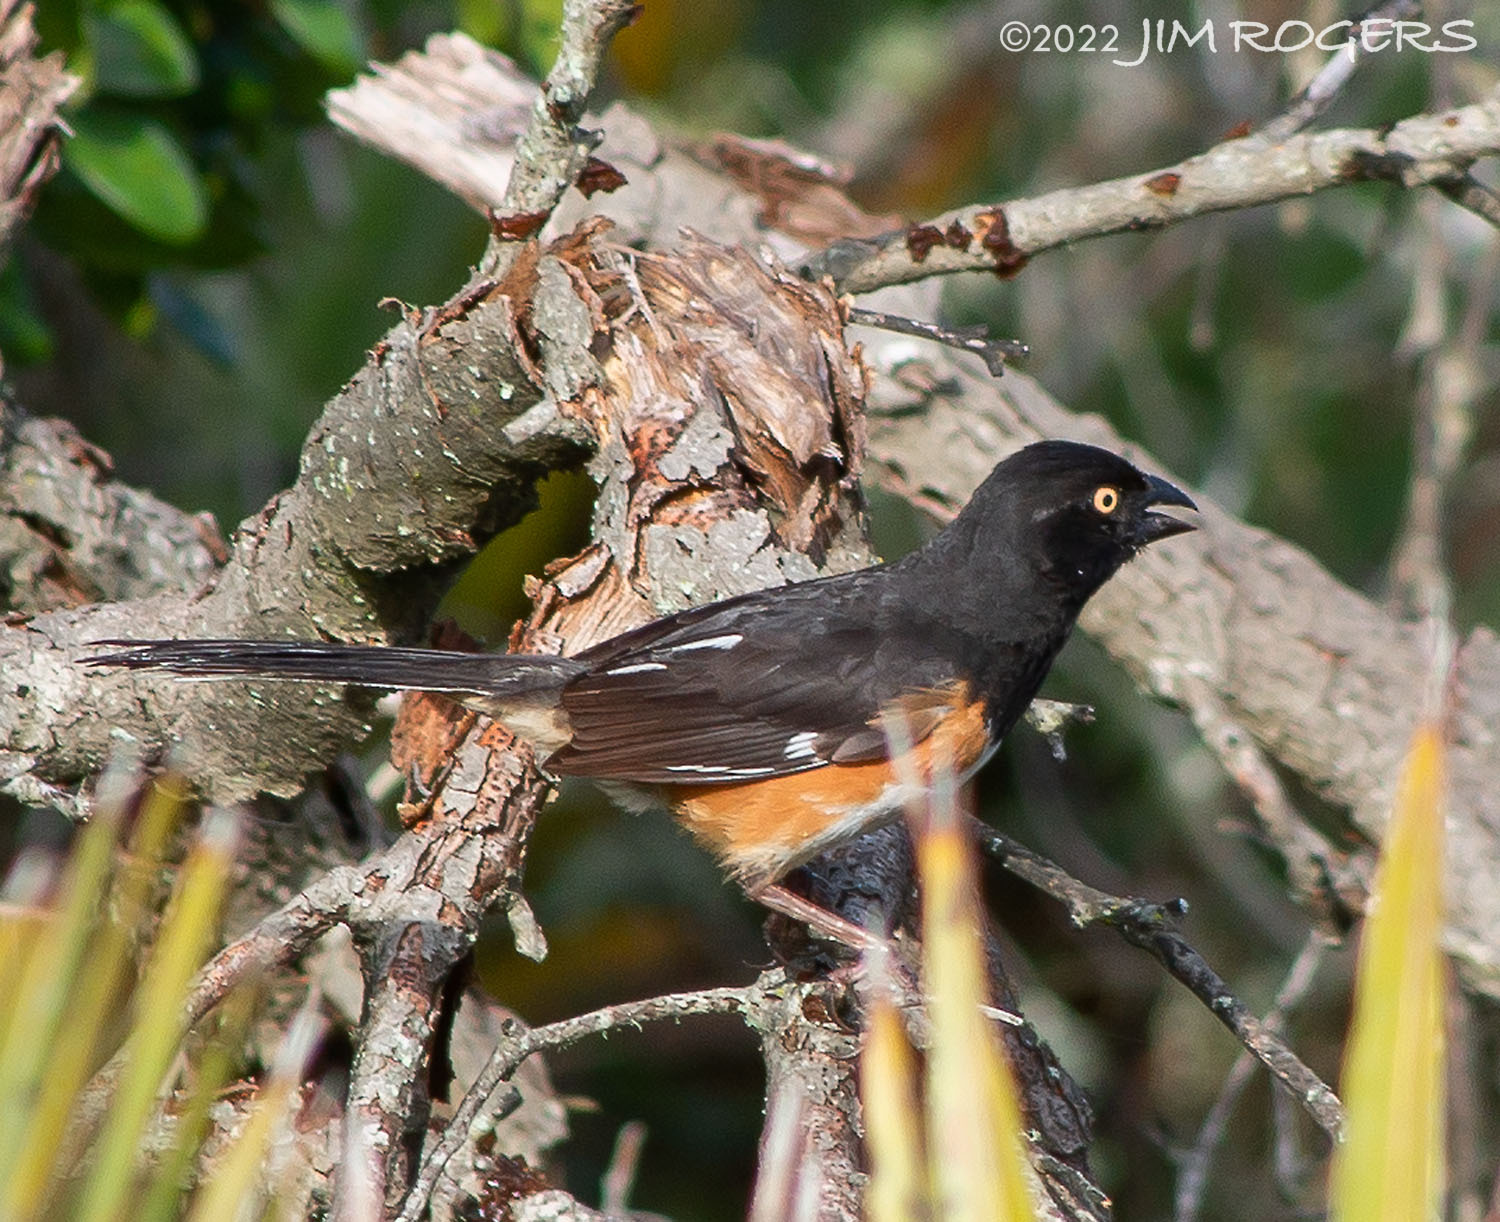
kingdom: Animalia
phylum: Chordata
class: Aves
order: Passeriformes
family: Passerellidae
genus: Pipilo
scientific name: Pipilo erythrophthalmus
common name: Eastern towhee
